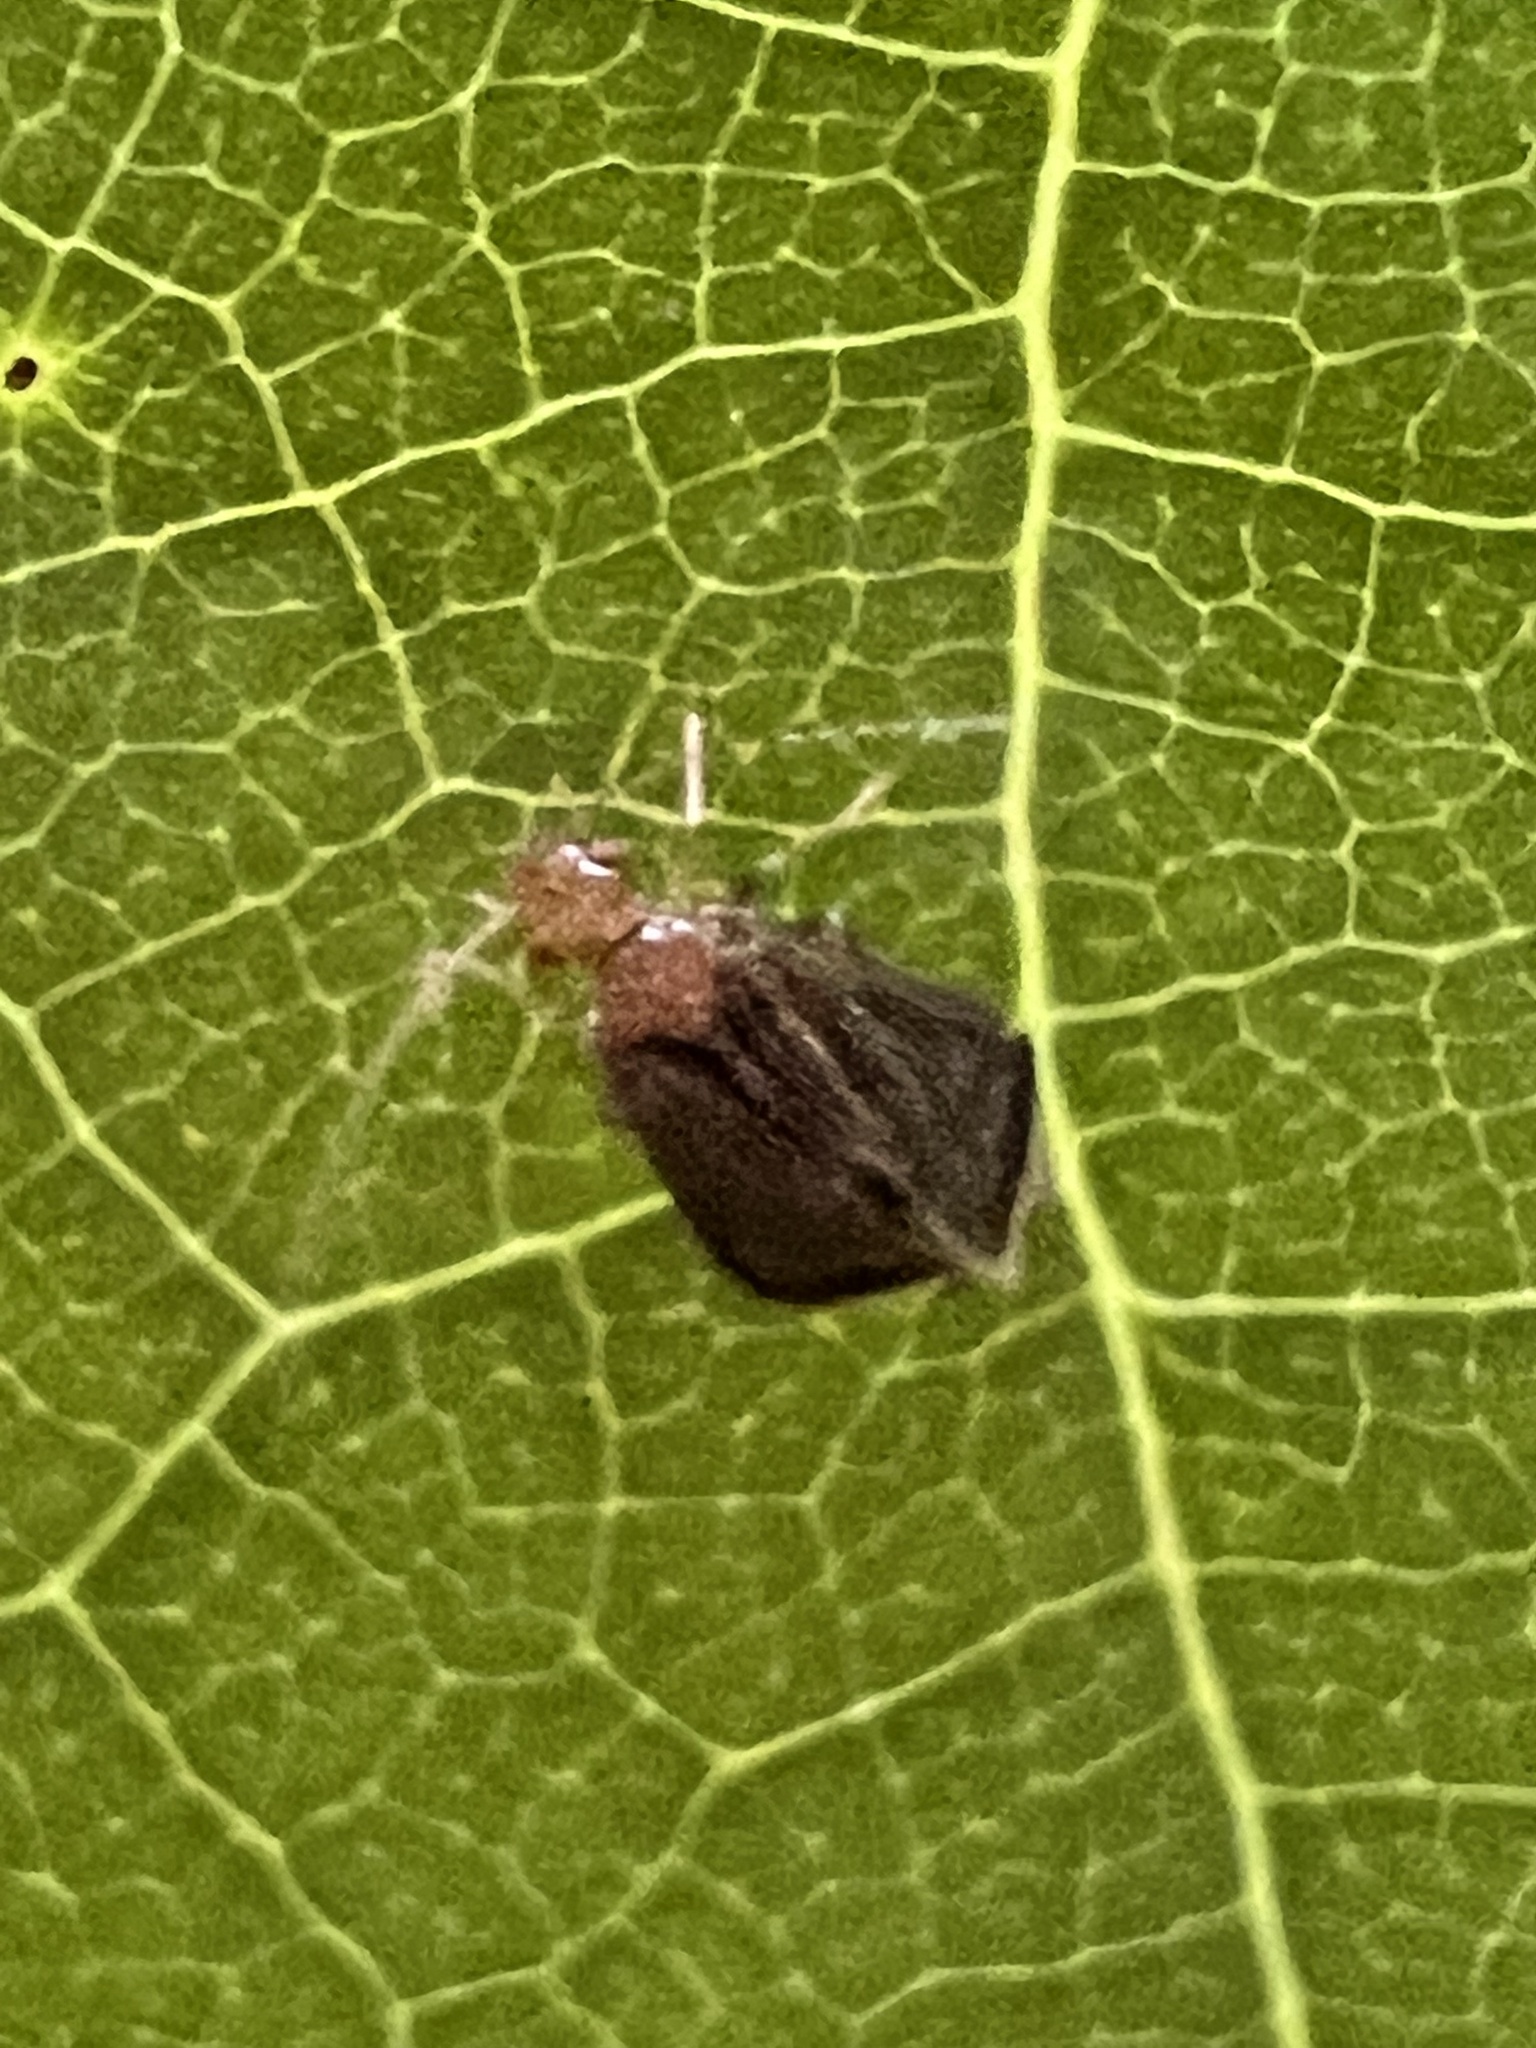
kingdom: Animalia
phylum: Arthropoda
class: Insecta
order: Psocodea
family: Amphipsocidae
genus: Polypsocus
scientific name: Polypsocus corruptus
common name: Corrupt barklouse
